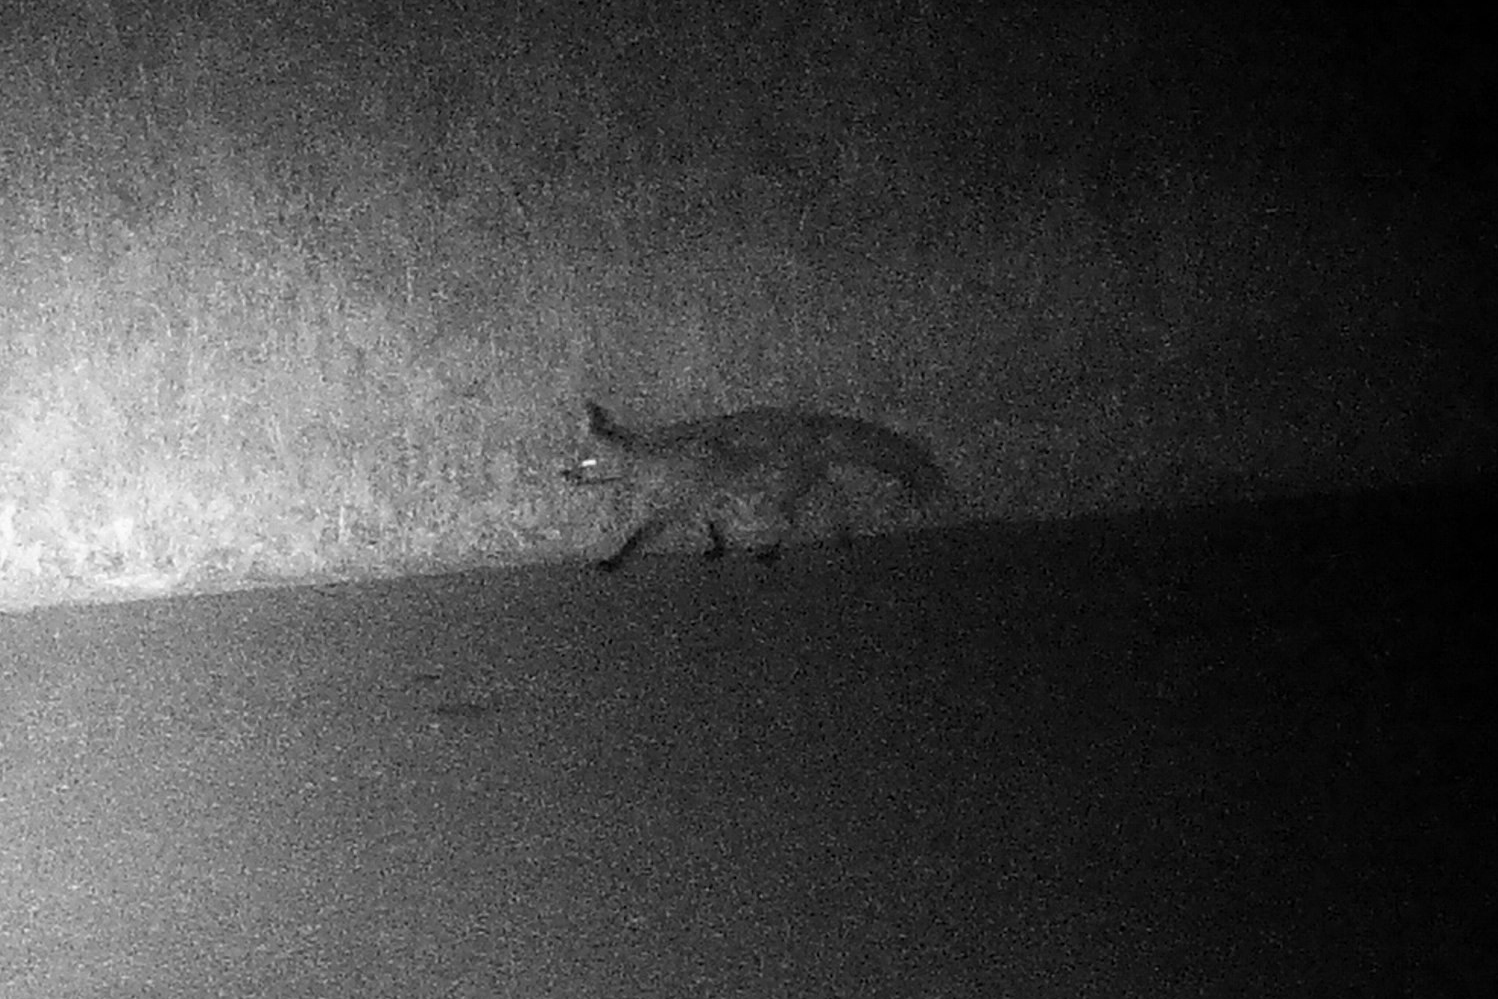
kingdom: Animalia
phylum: Chordata
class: Mammalia
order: Carnivora
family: Canidae
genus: Vulpes
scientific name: Vulpes vulpes
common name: Red fox
